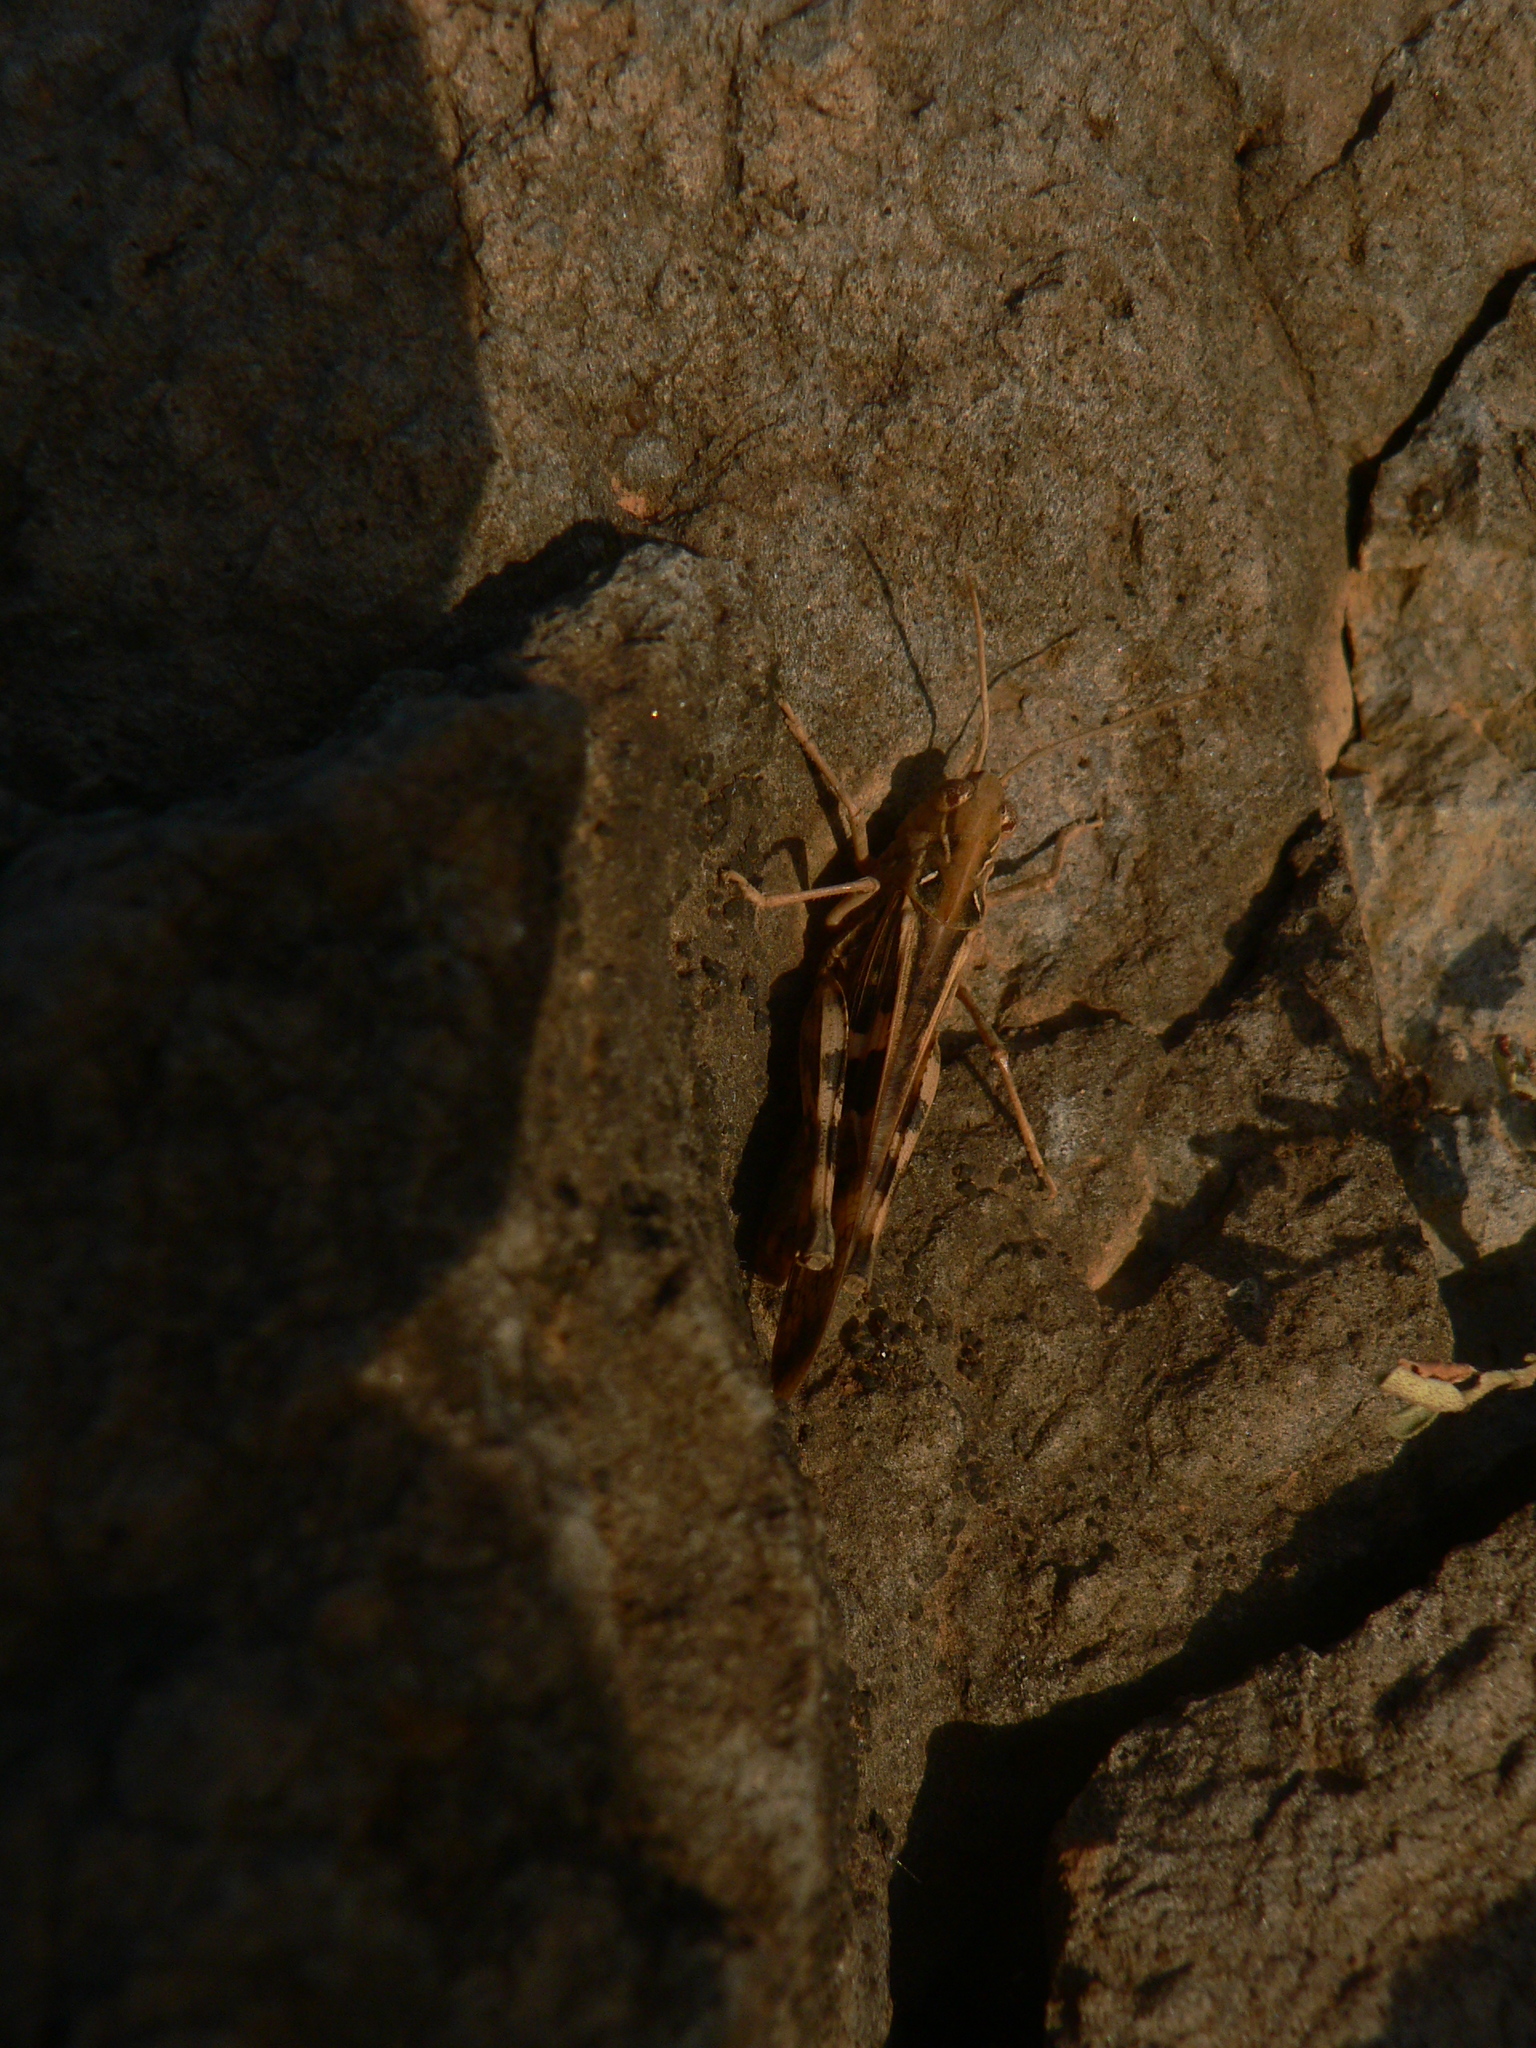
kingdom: Animalia
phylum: Arthropoda
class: Insecta
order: Orthoptera
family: Acrididae
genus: Oedaleus
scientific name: Oedaleus senegalensis
